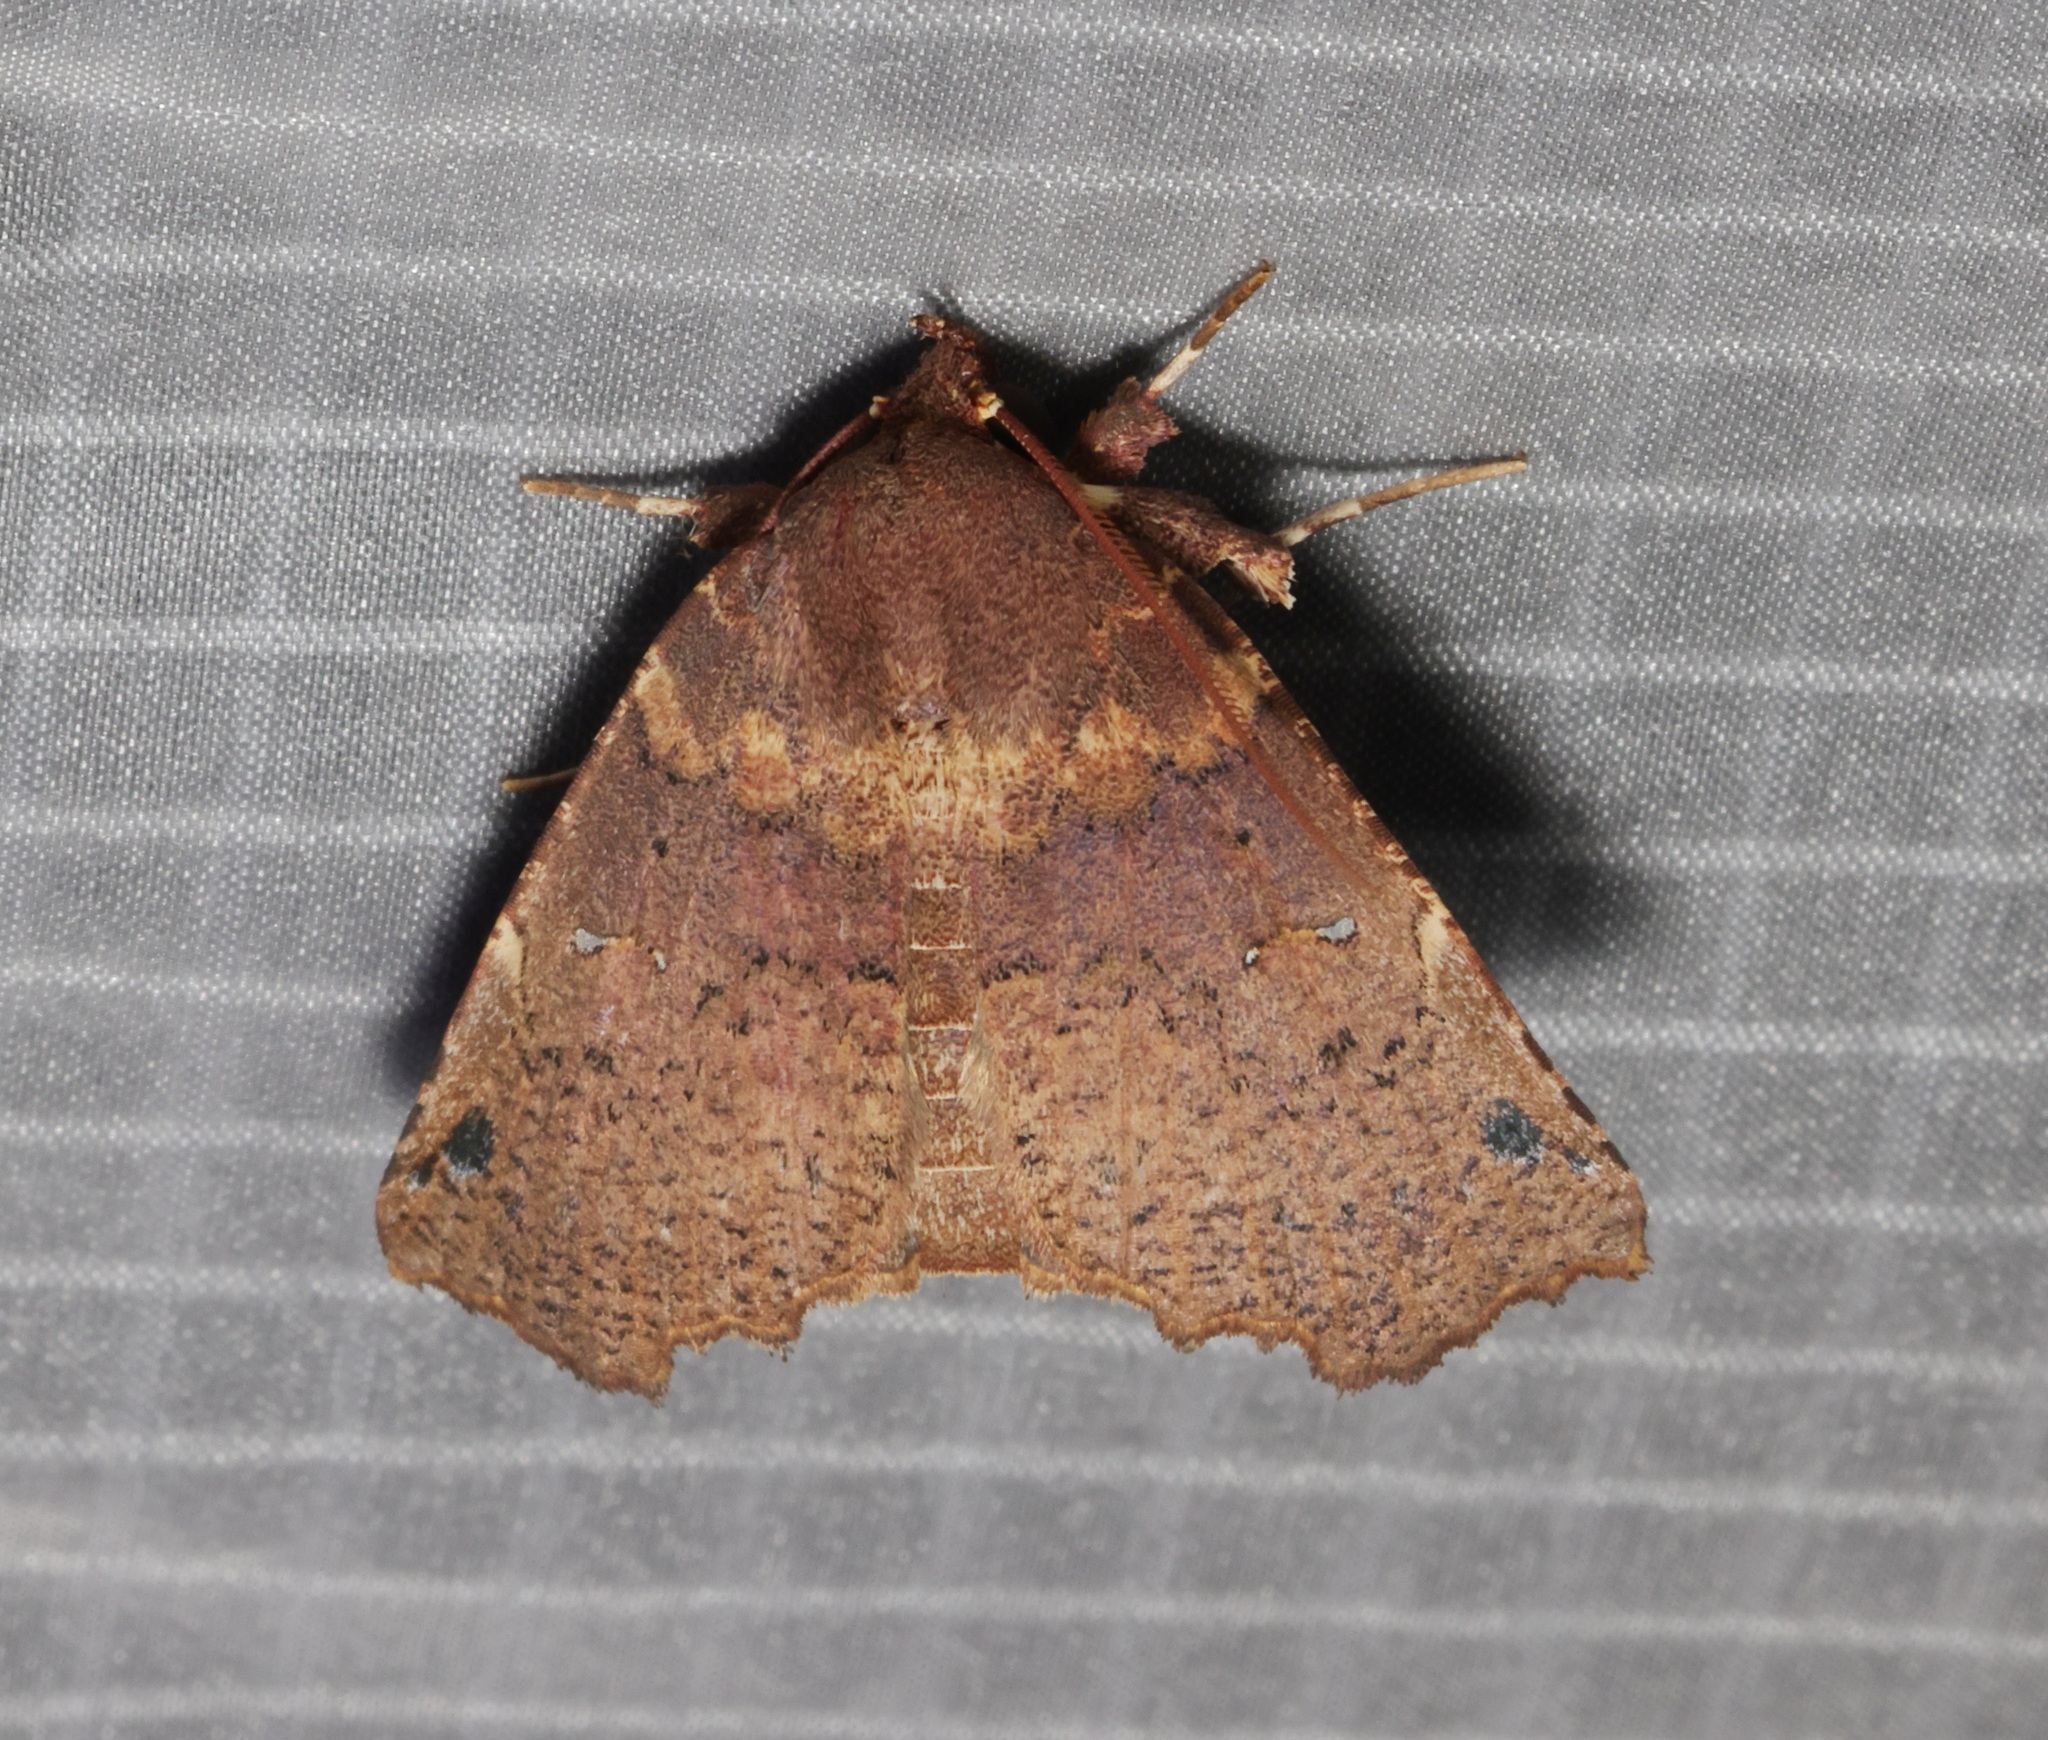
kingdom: Animalia
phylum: Arthropoda
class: Insecta
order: Lepidoptera
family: Erebidae
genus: Falana
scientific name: Falana sordida
